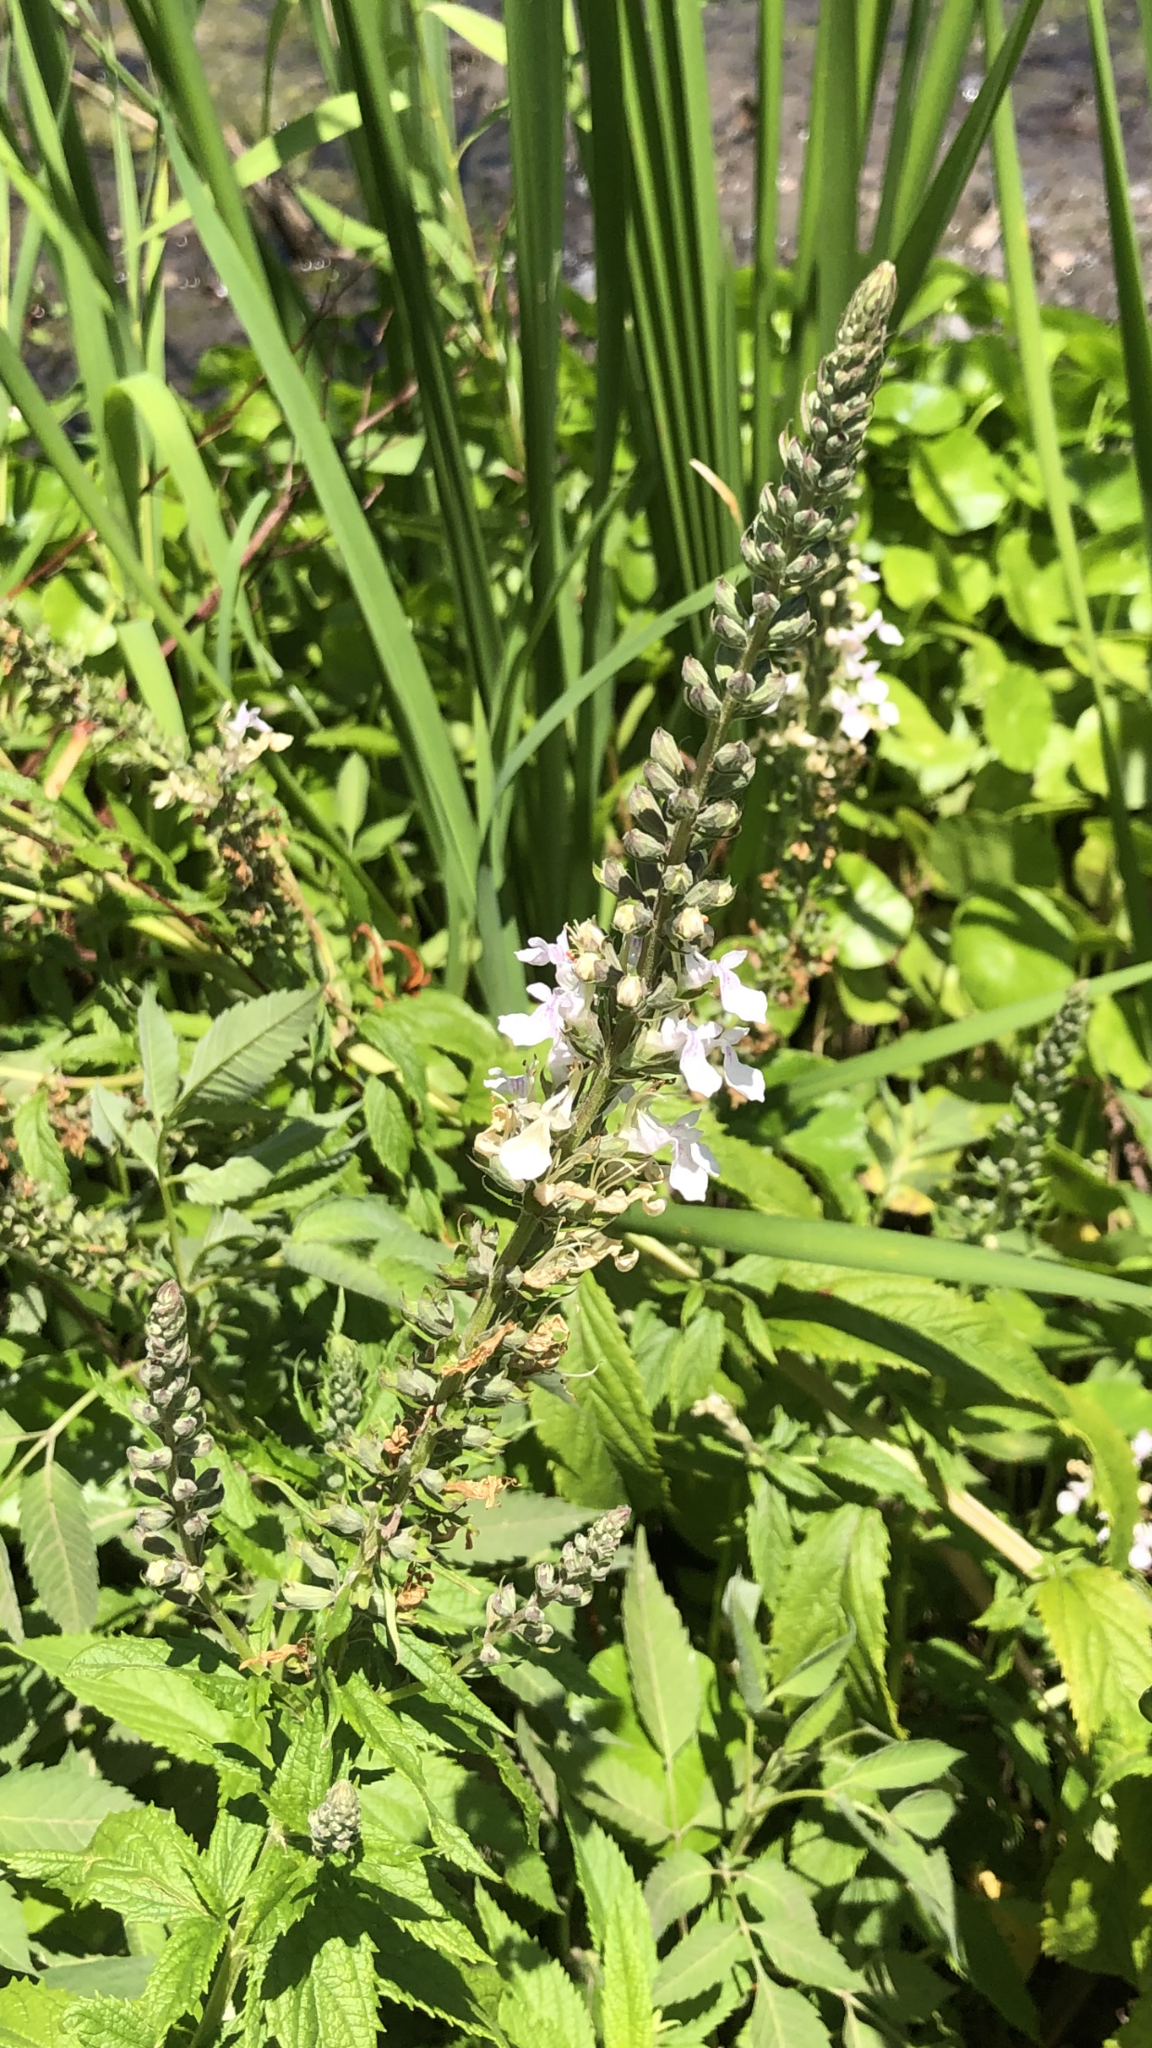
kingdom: Plantae
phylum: Tracheophyta
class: Magnoliopsida
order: Lamiales
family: Lamiaceae
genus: Teucrium
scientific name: Teucrium canadense
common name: American germander
